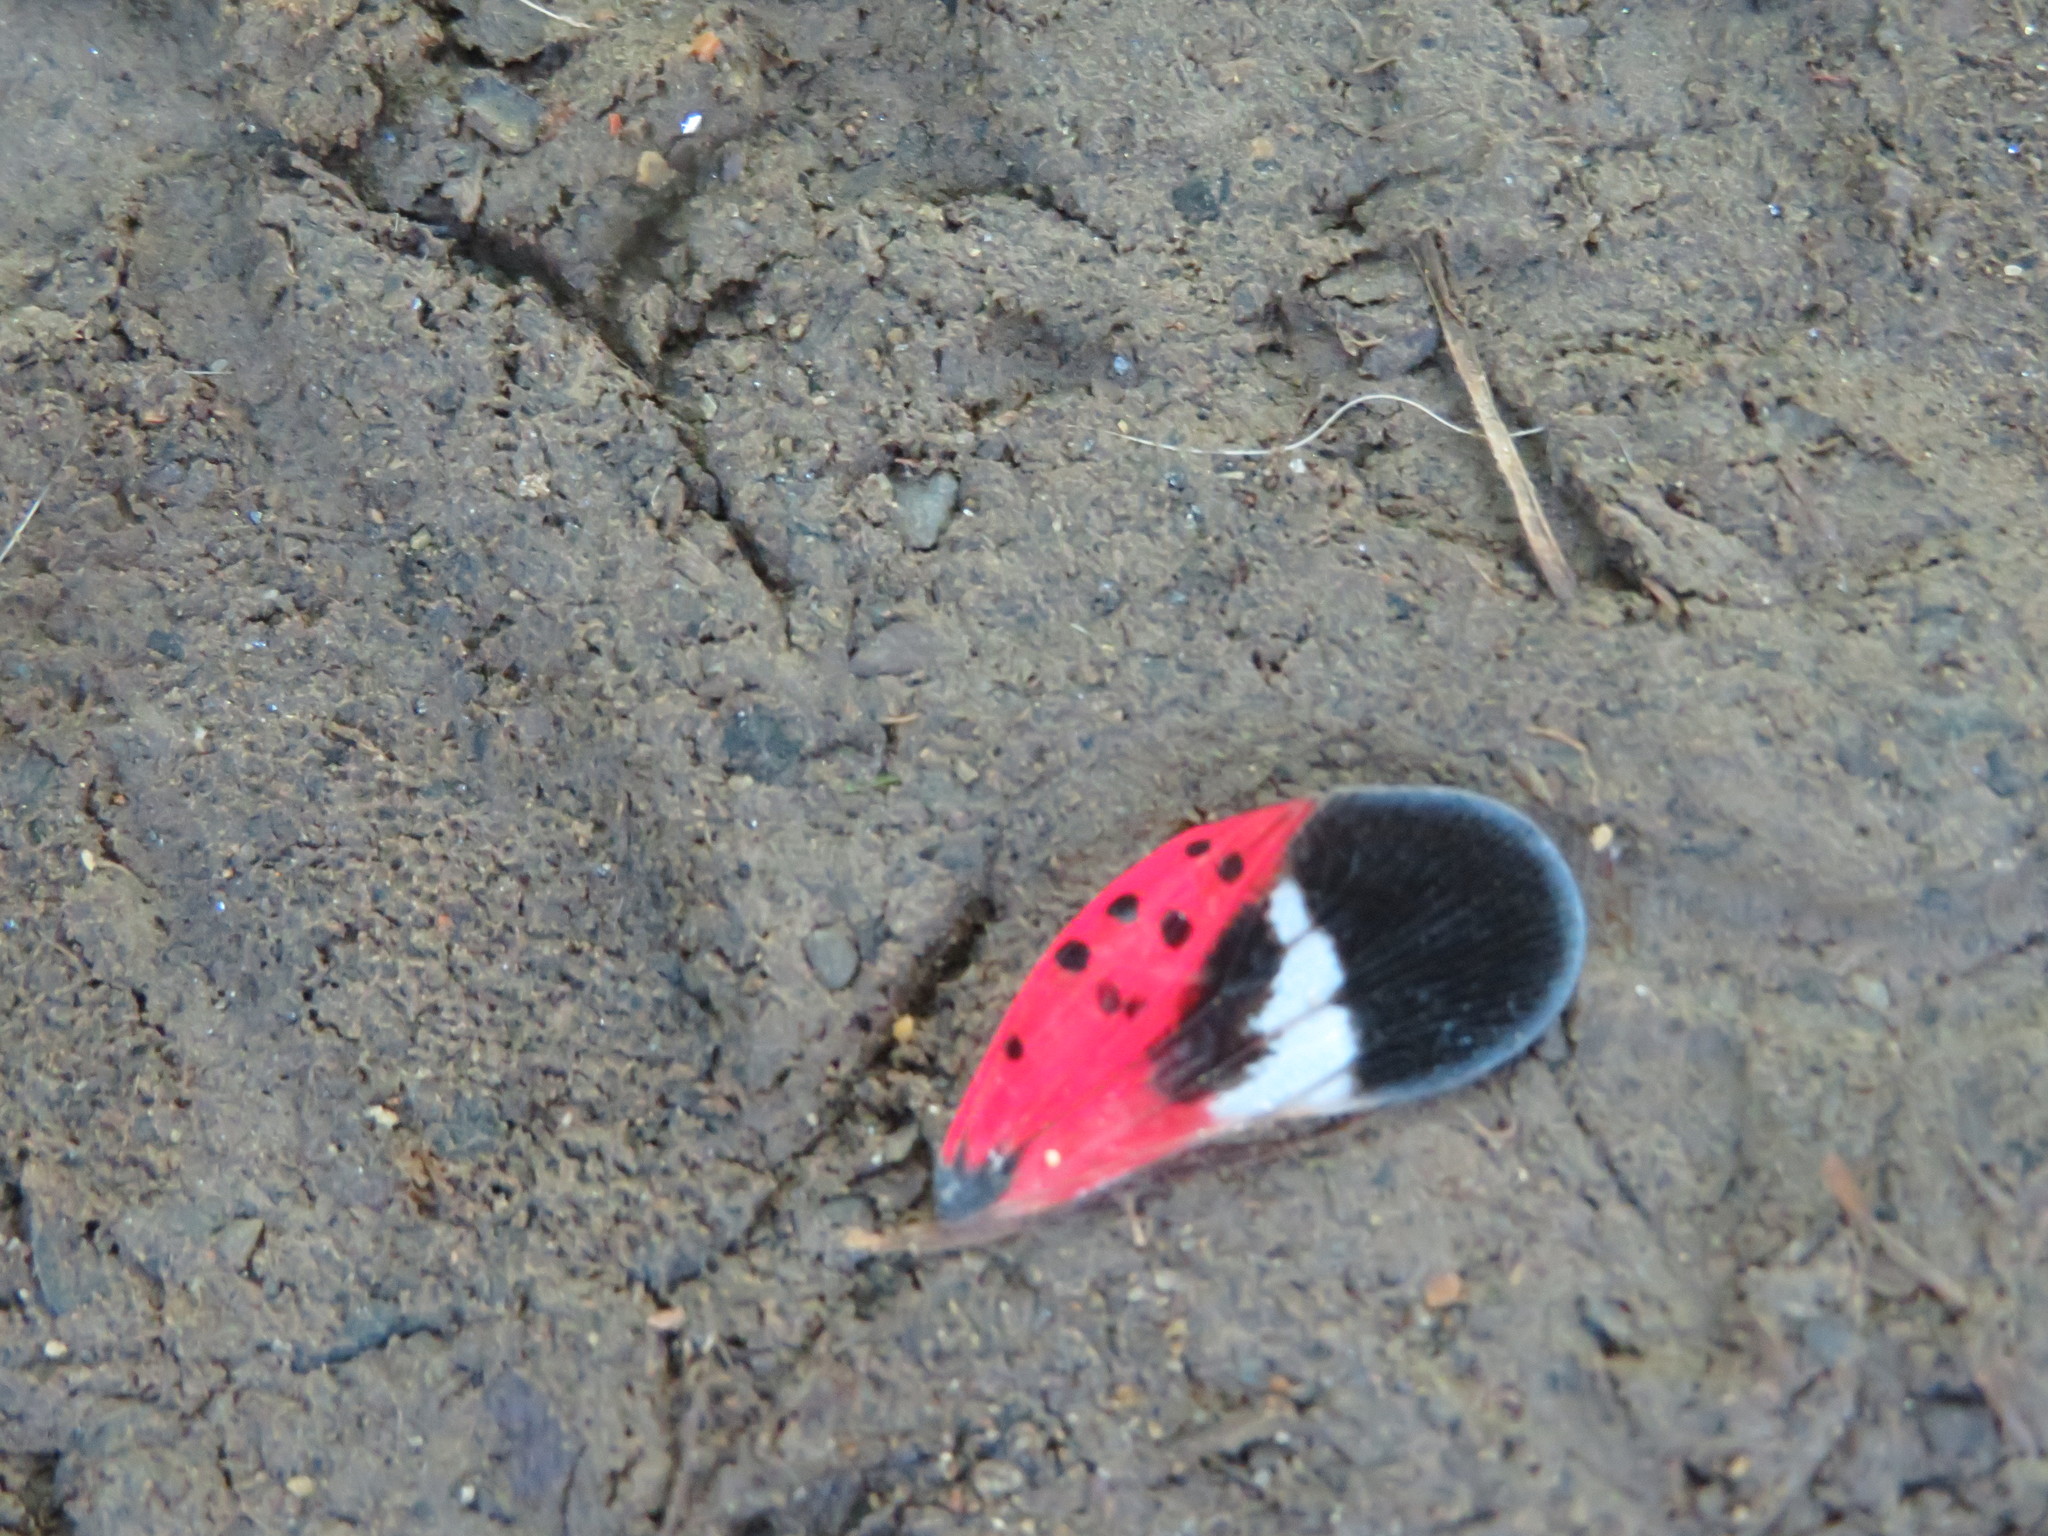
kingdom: Animalia
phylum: Arthropoda
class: Insecta
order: Hemiptera
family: Fulgoridae
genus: Lycorma
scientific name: Lycorma delicatula
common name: Spotted lanternfly
